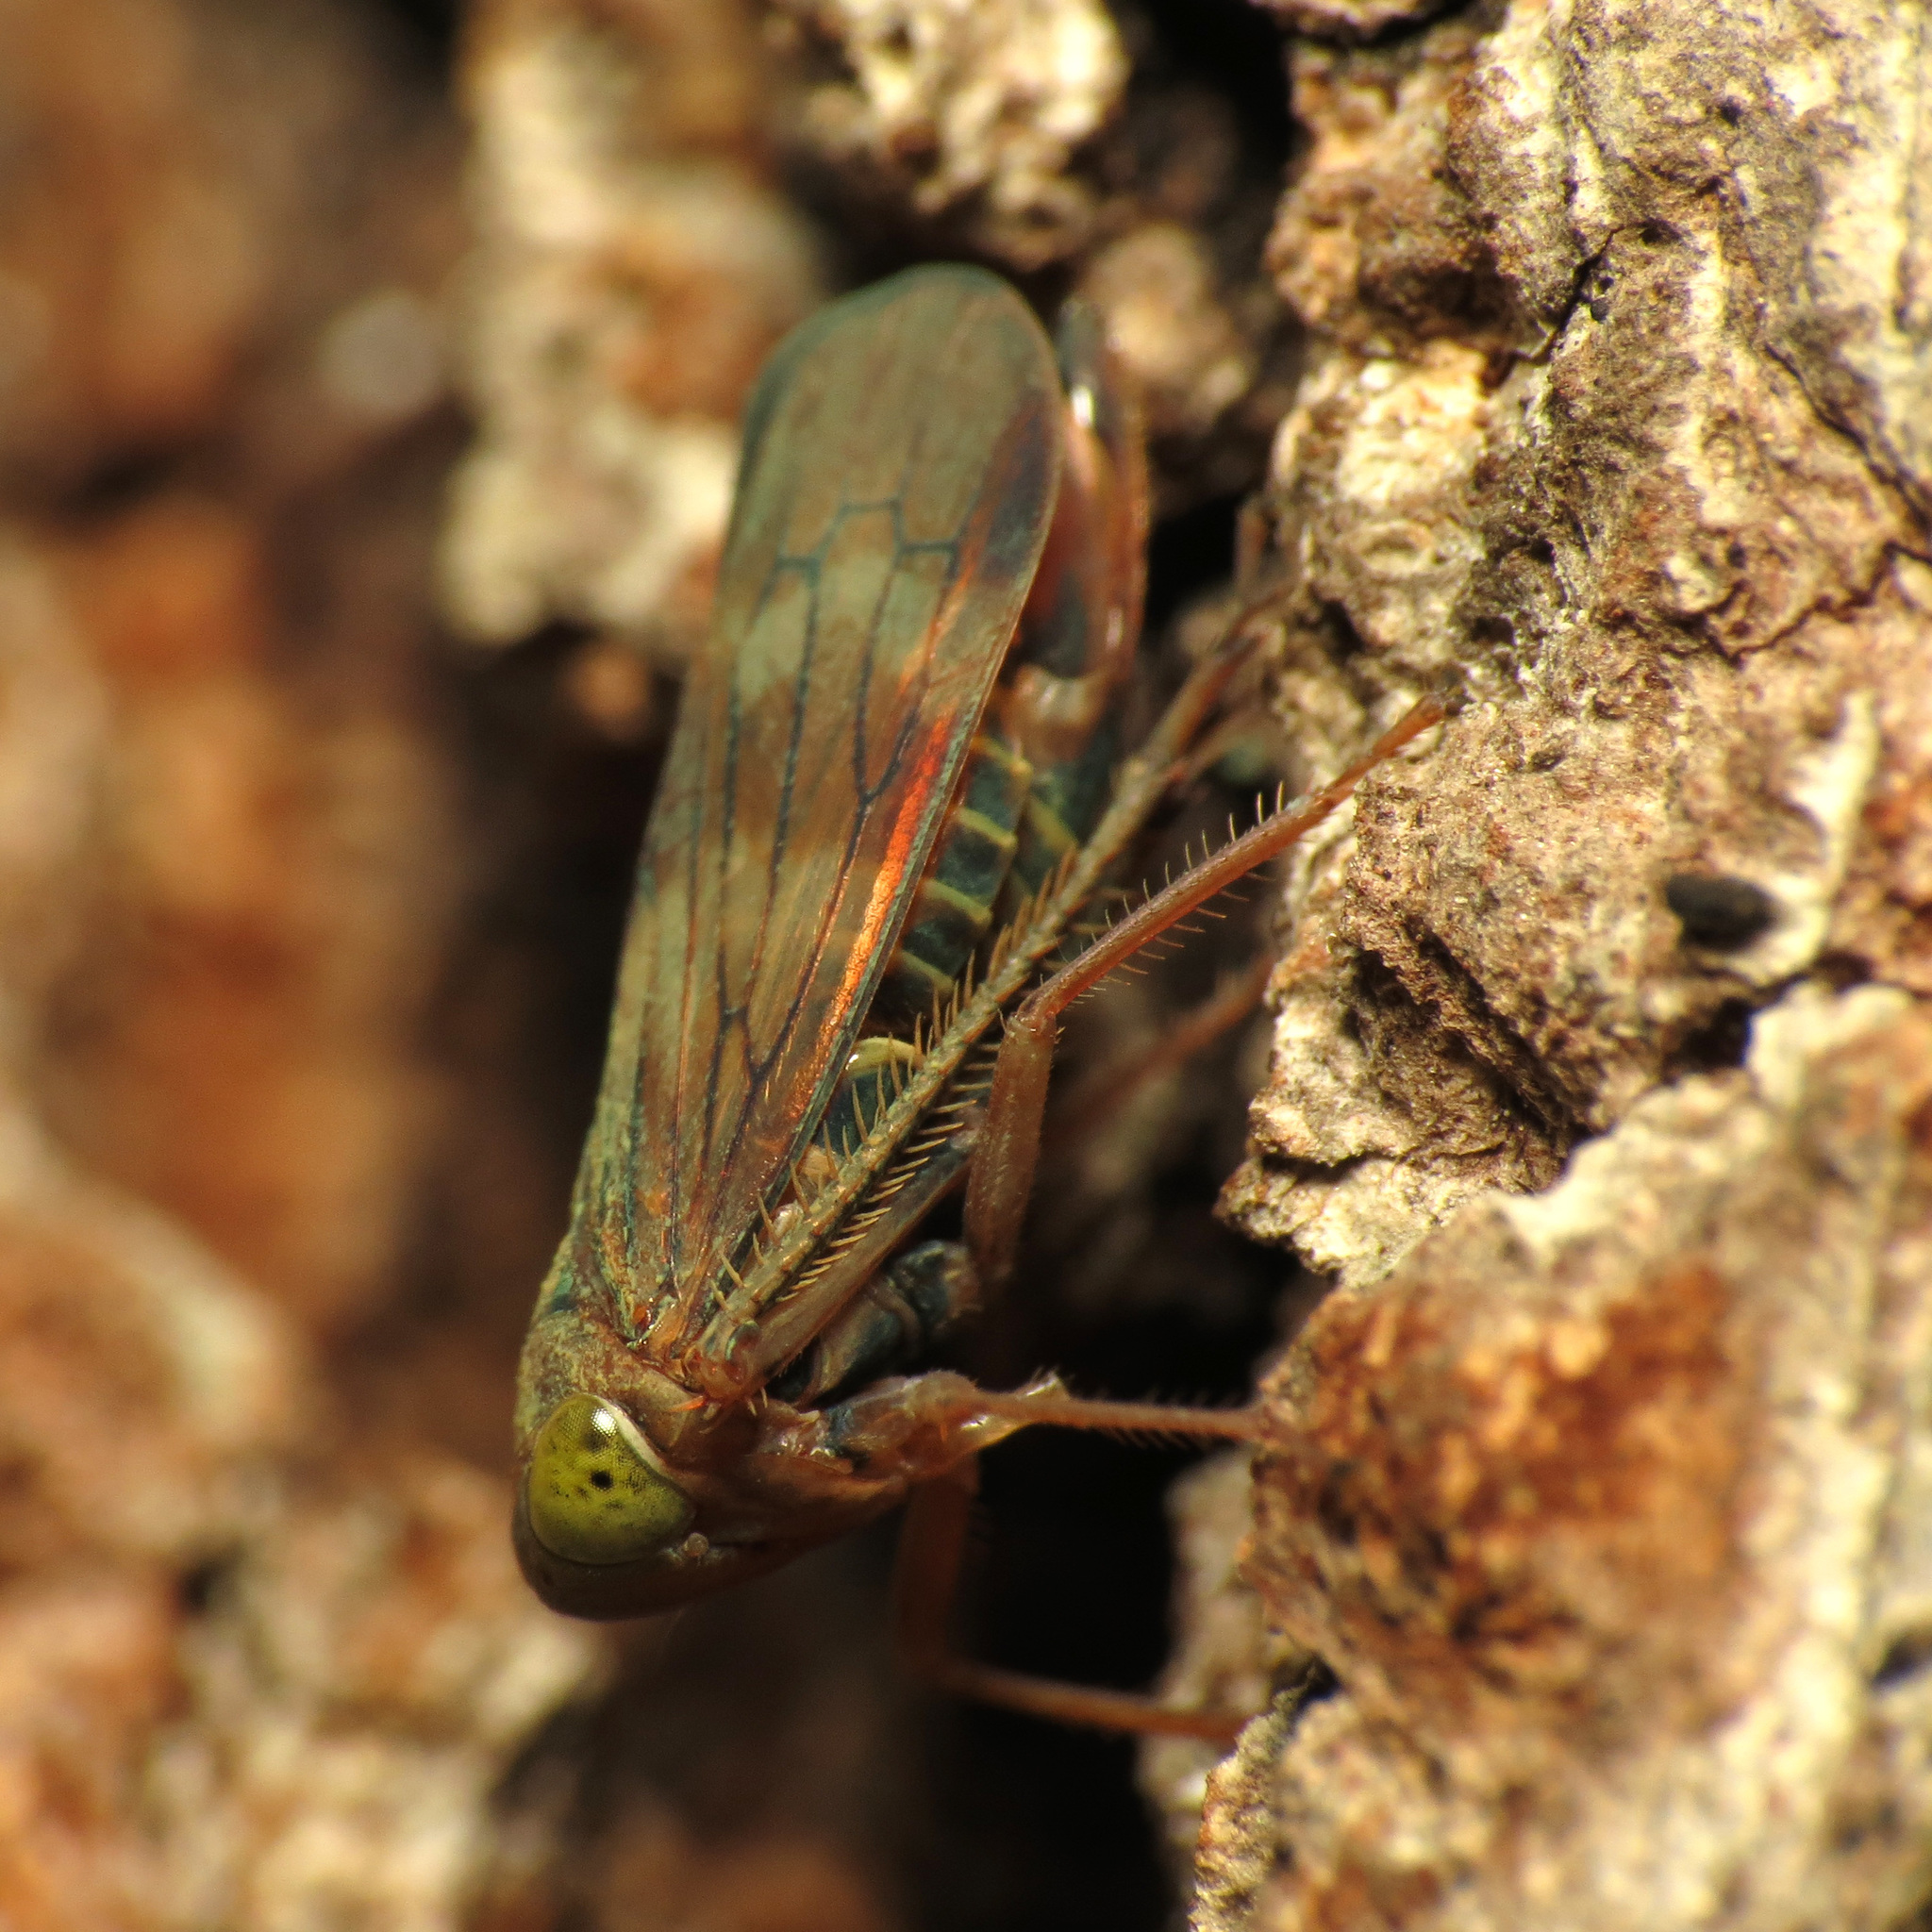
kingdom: Animalia
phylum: Arthropoda
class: Insecta
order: Hemiptera
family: Cicadellidae
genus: Jikradia
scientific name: Jikradia olitoria
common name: Coppery leafhopper
